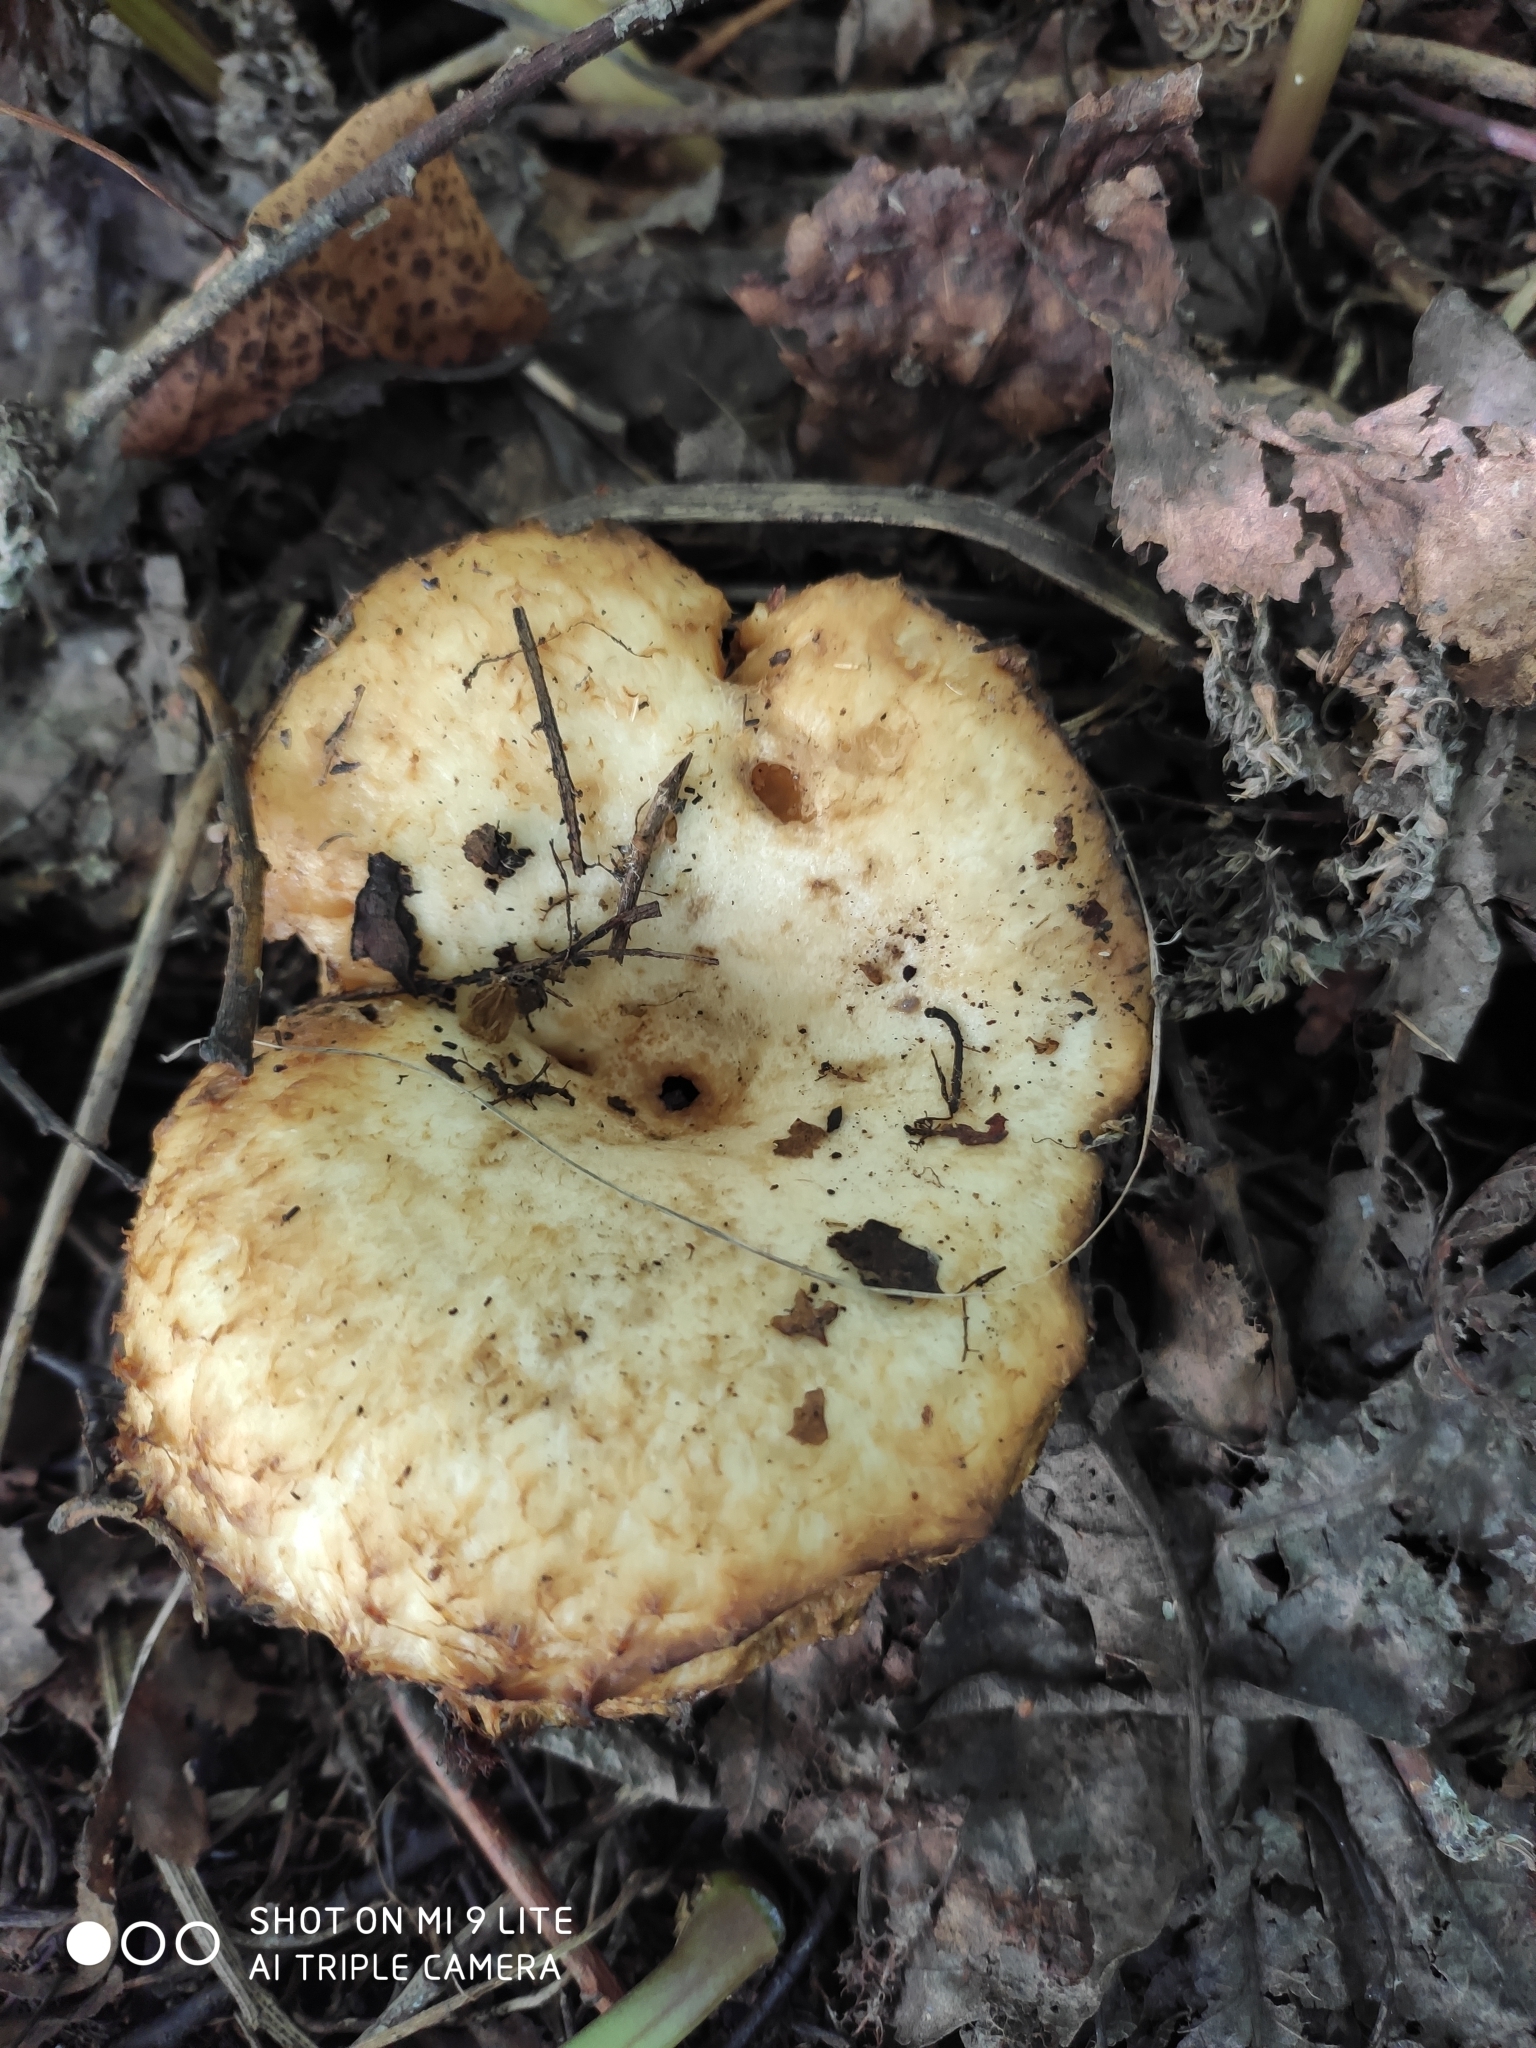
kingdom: Fungi
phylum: Basidiomycota
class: Agaricomycetes
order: Russulales
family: Russulaceae
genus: Lactarius
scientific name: Lactarius scrobiculatus
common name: Spotted milkcap
